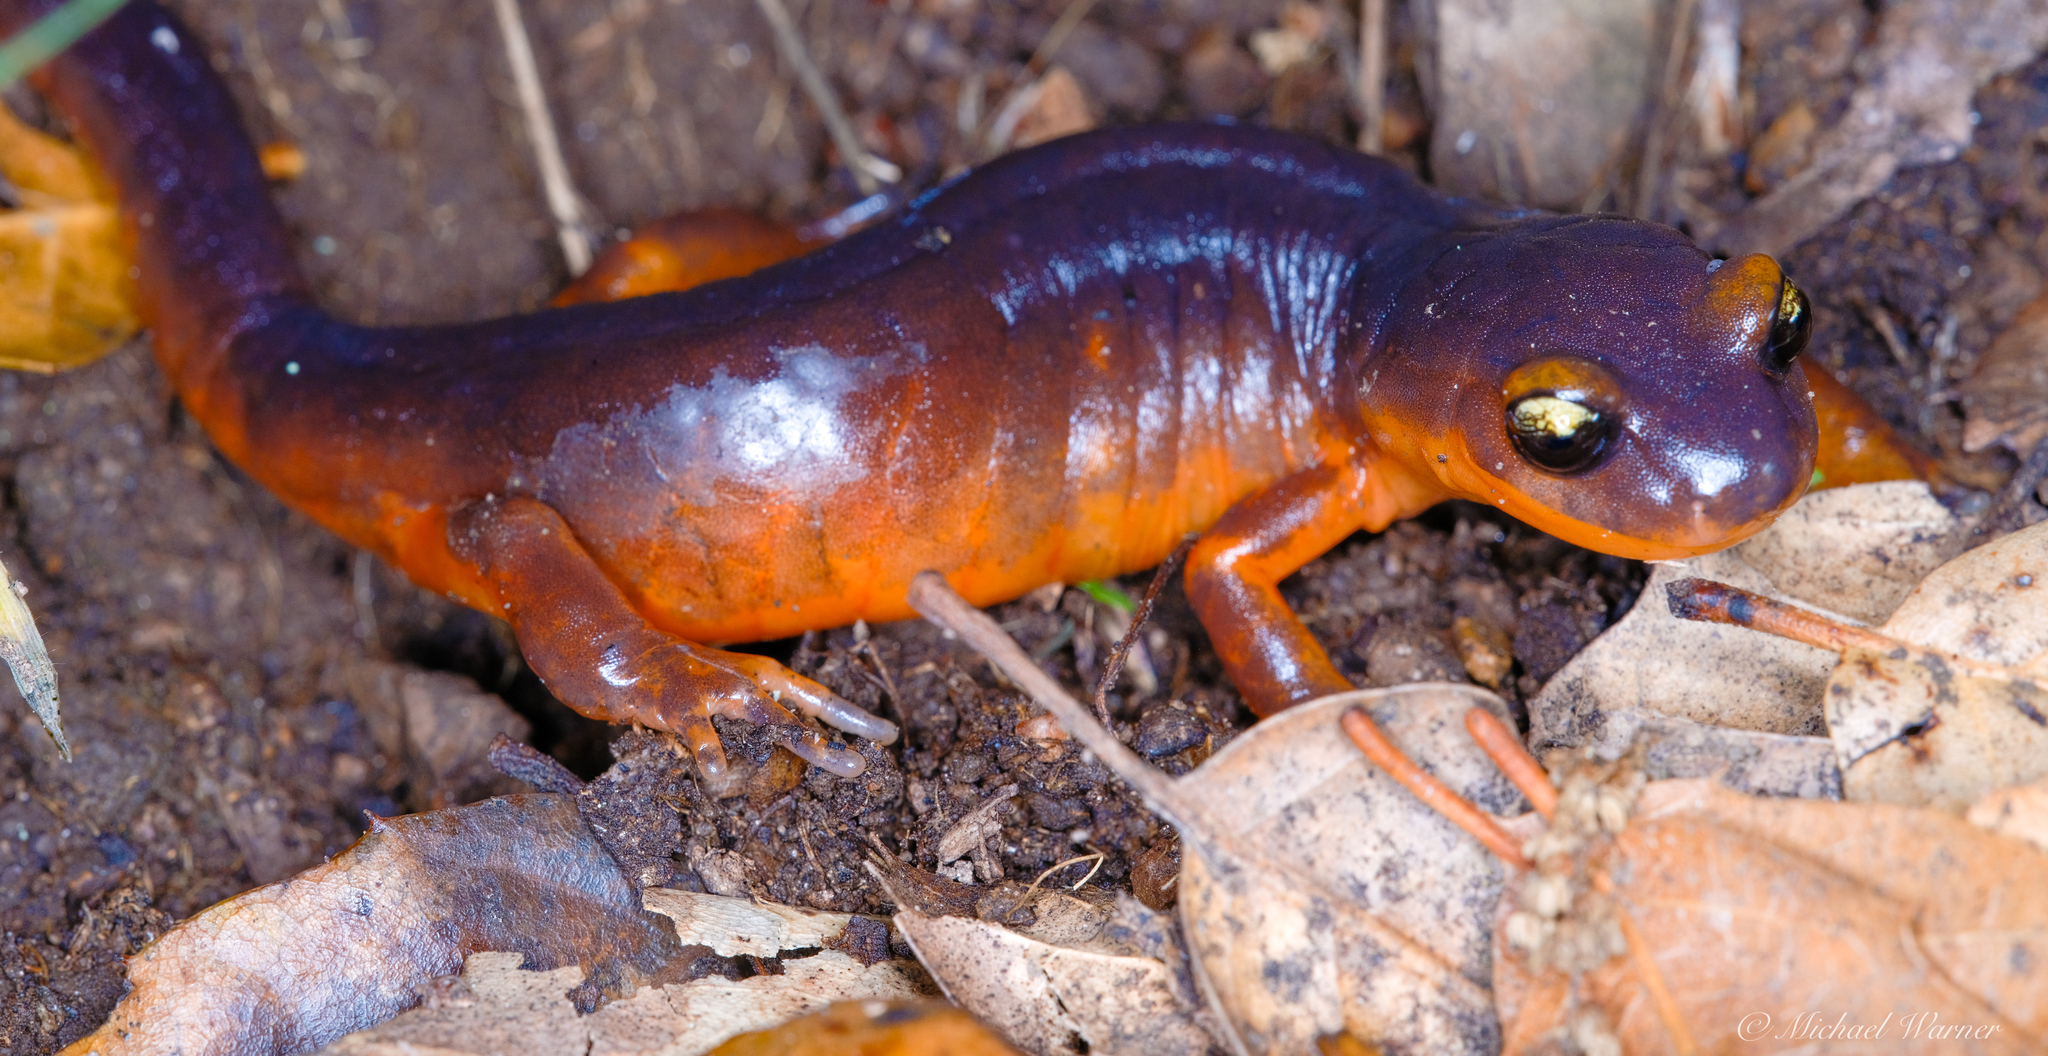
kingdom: Animalia
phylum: Chordata
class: Amphibia
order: Caudata
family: Plethodontidae
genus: Ensatina
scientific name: Ensatina eschscholtzii
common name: Ensatina
